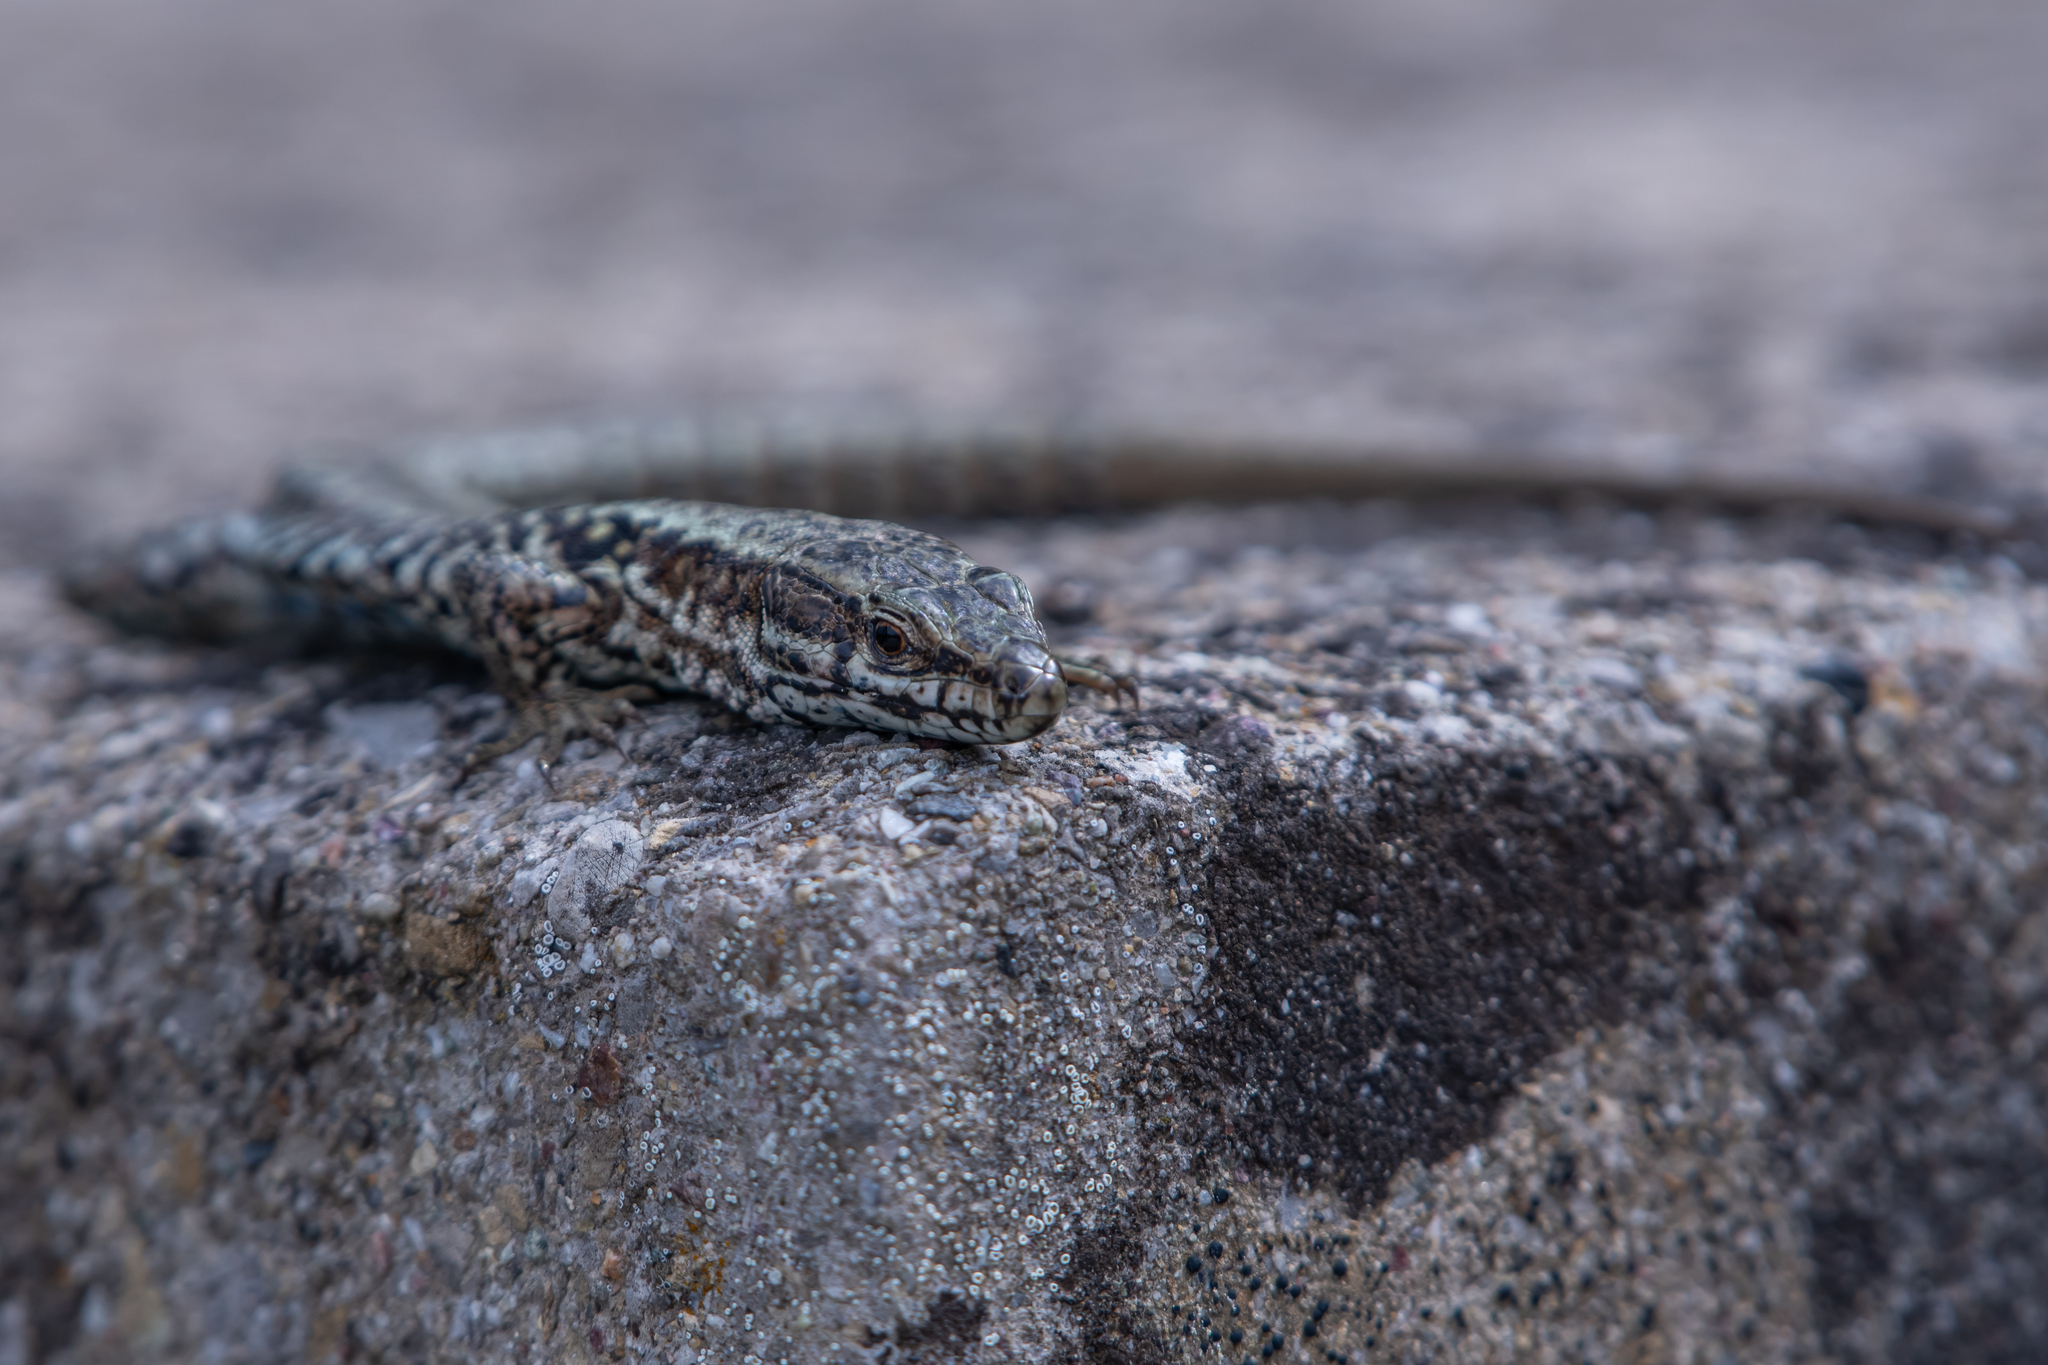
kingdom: Animalia
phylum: Chordata
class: Squamata
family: Lacertidae
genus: Podarcis
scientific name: Podarcis muralis
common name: Common wall lizard
